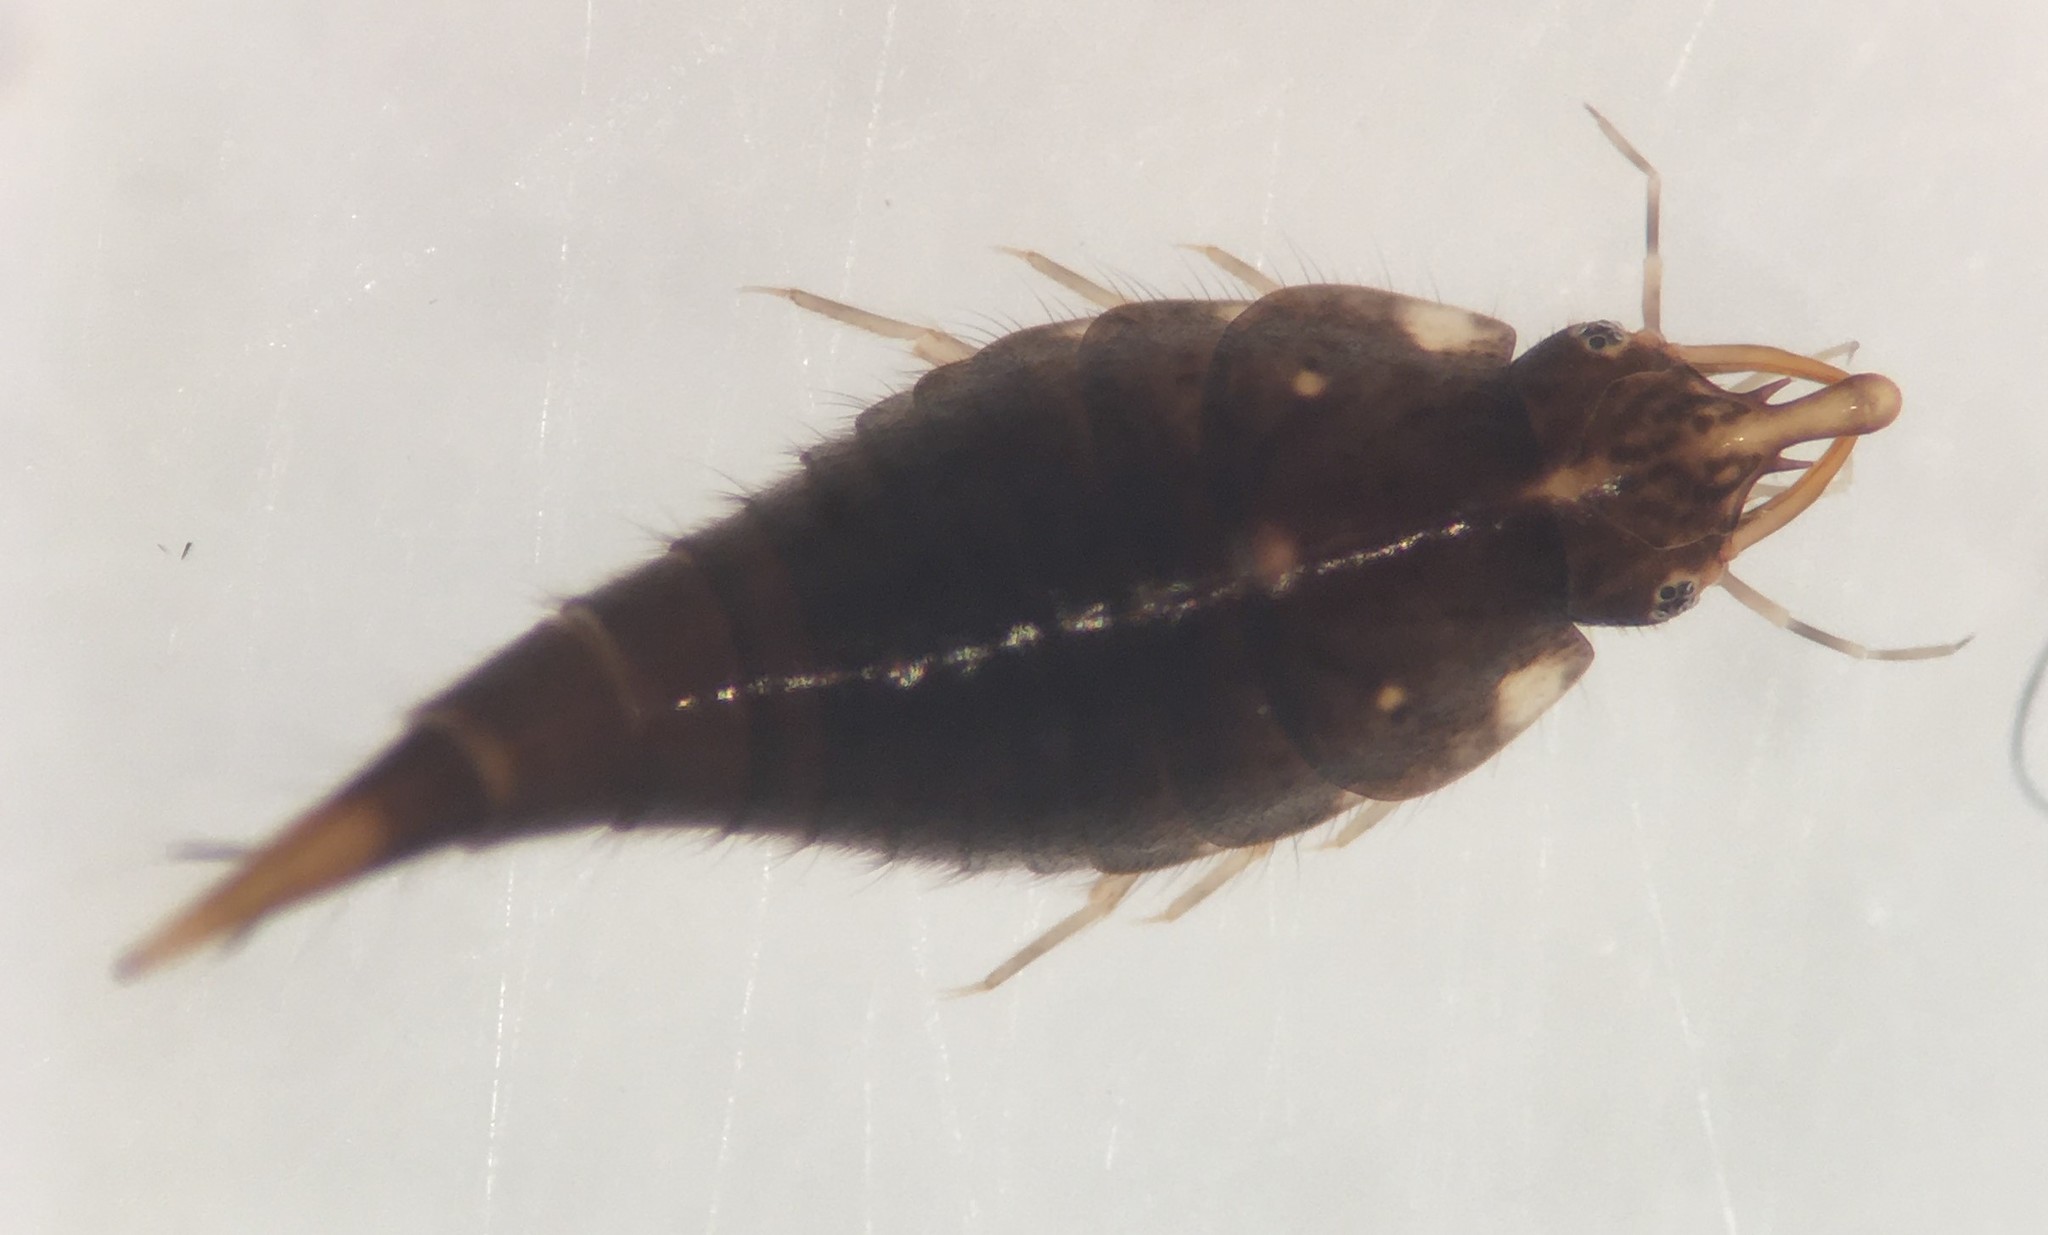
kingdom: Animalia
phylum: Arthropoda
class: Insecta
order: Coleoptera
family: Dytiscidae
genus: Pachydrus
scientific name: Pachydrus princeps
